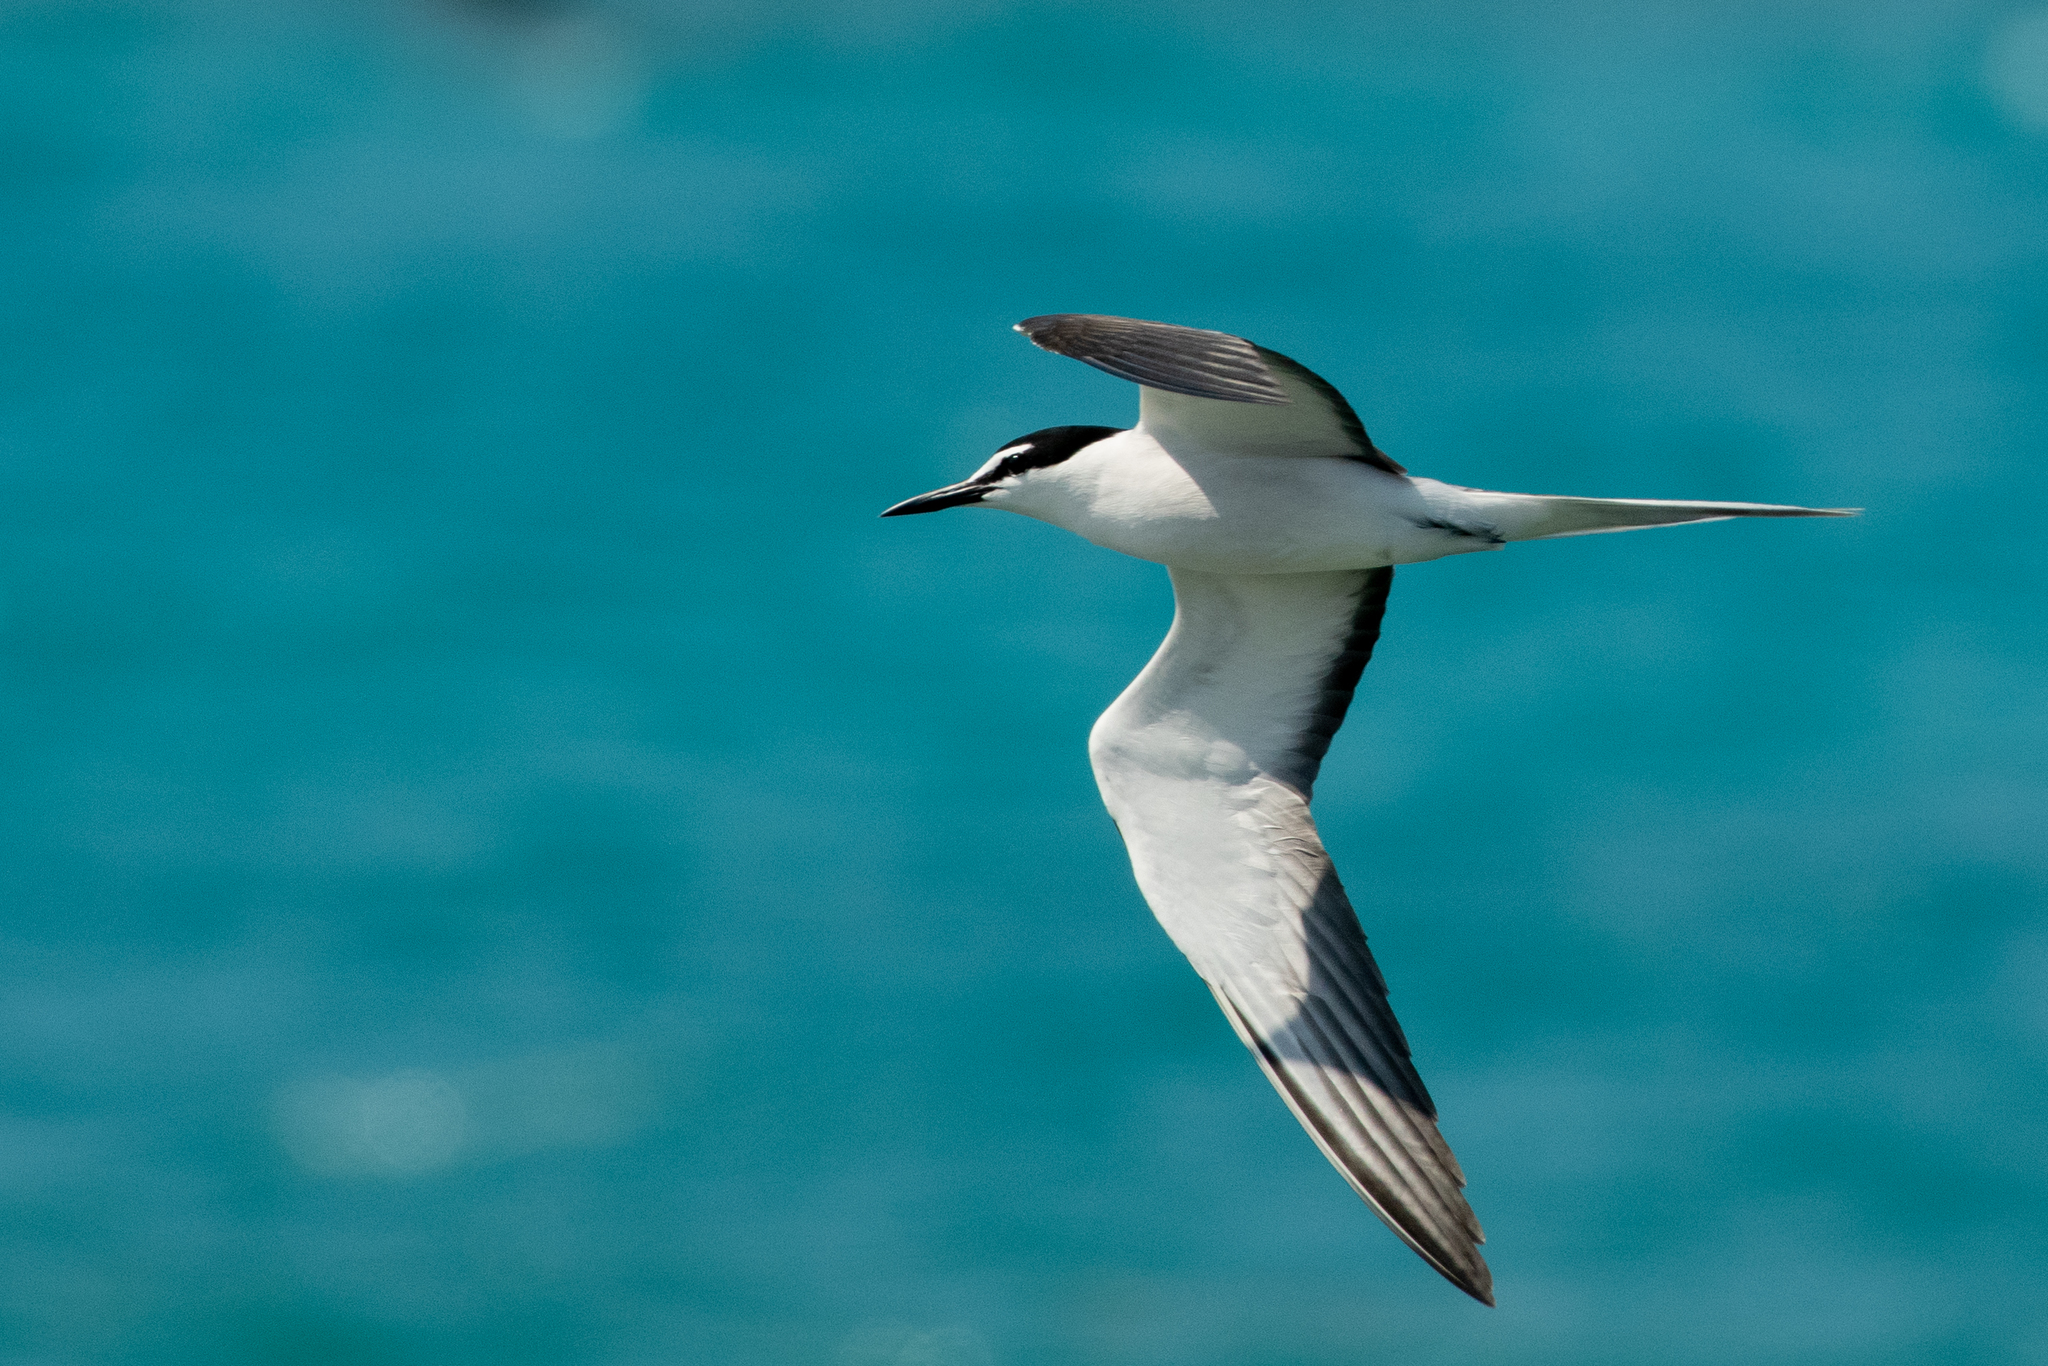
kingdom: Animalia
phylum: Chordata
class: Aves
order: Charadriiformes
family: Laridae
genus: Onychoprion
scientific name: Onychoprion anaethetus
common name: Bridled tern
